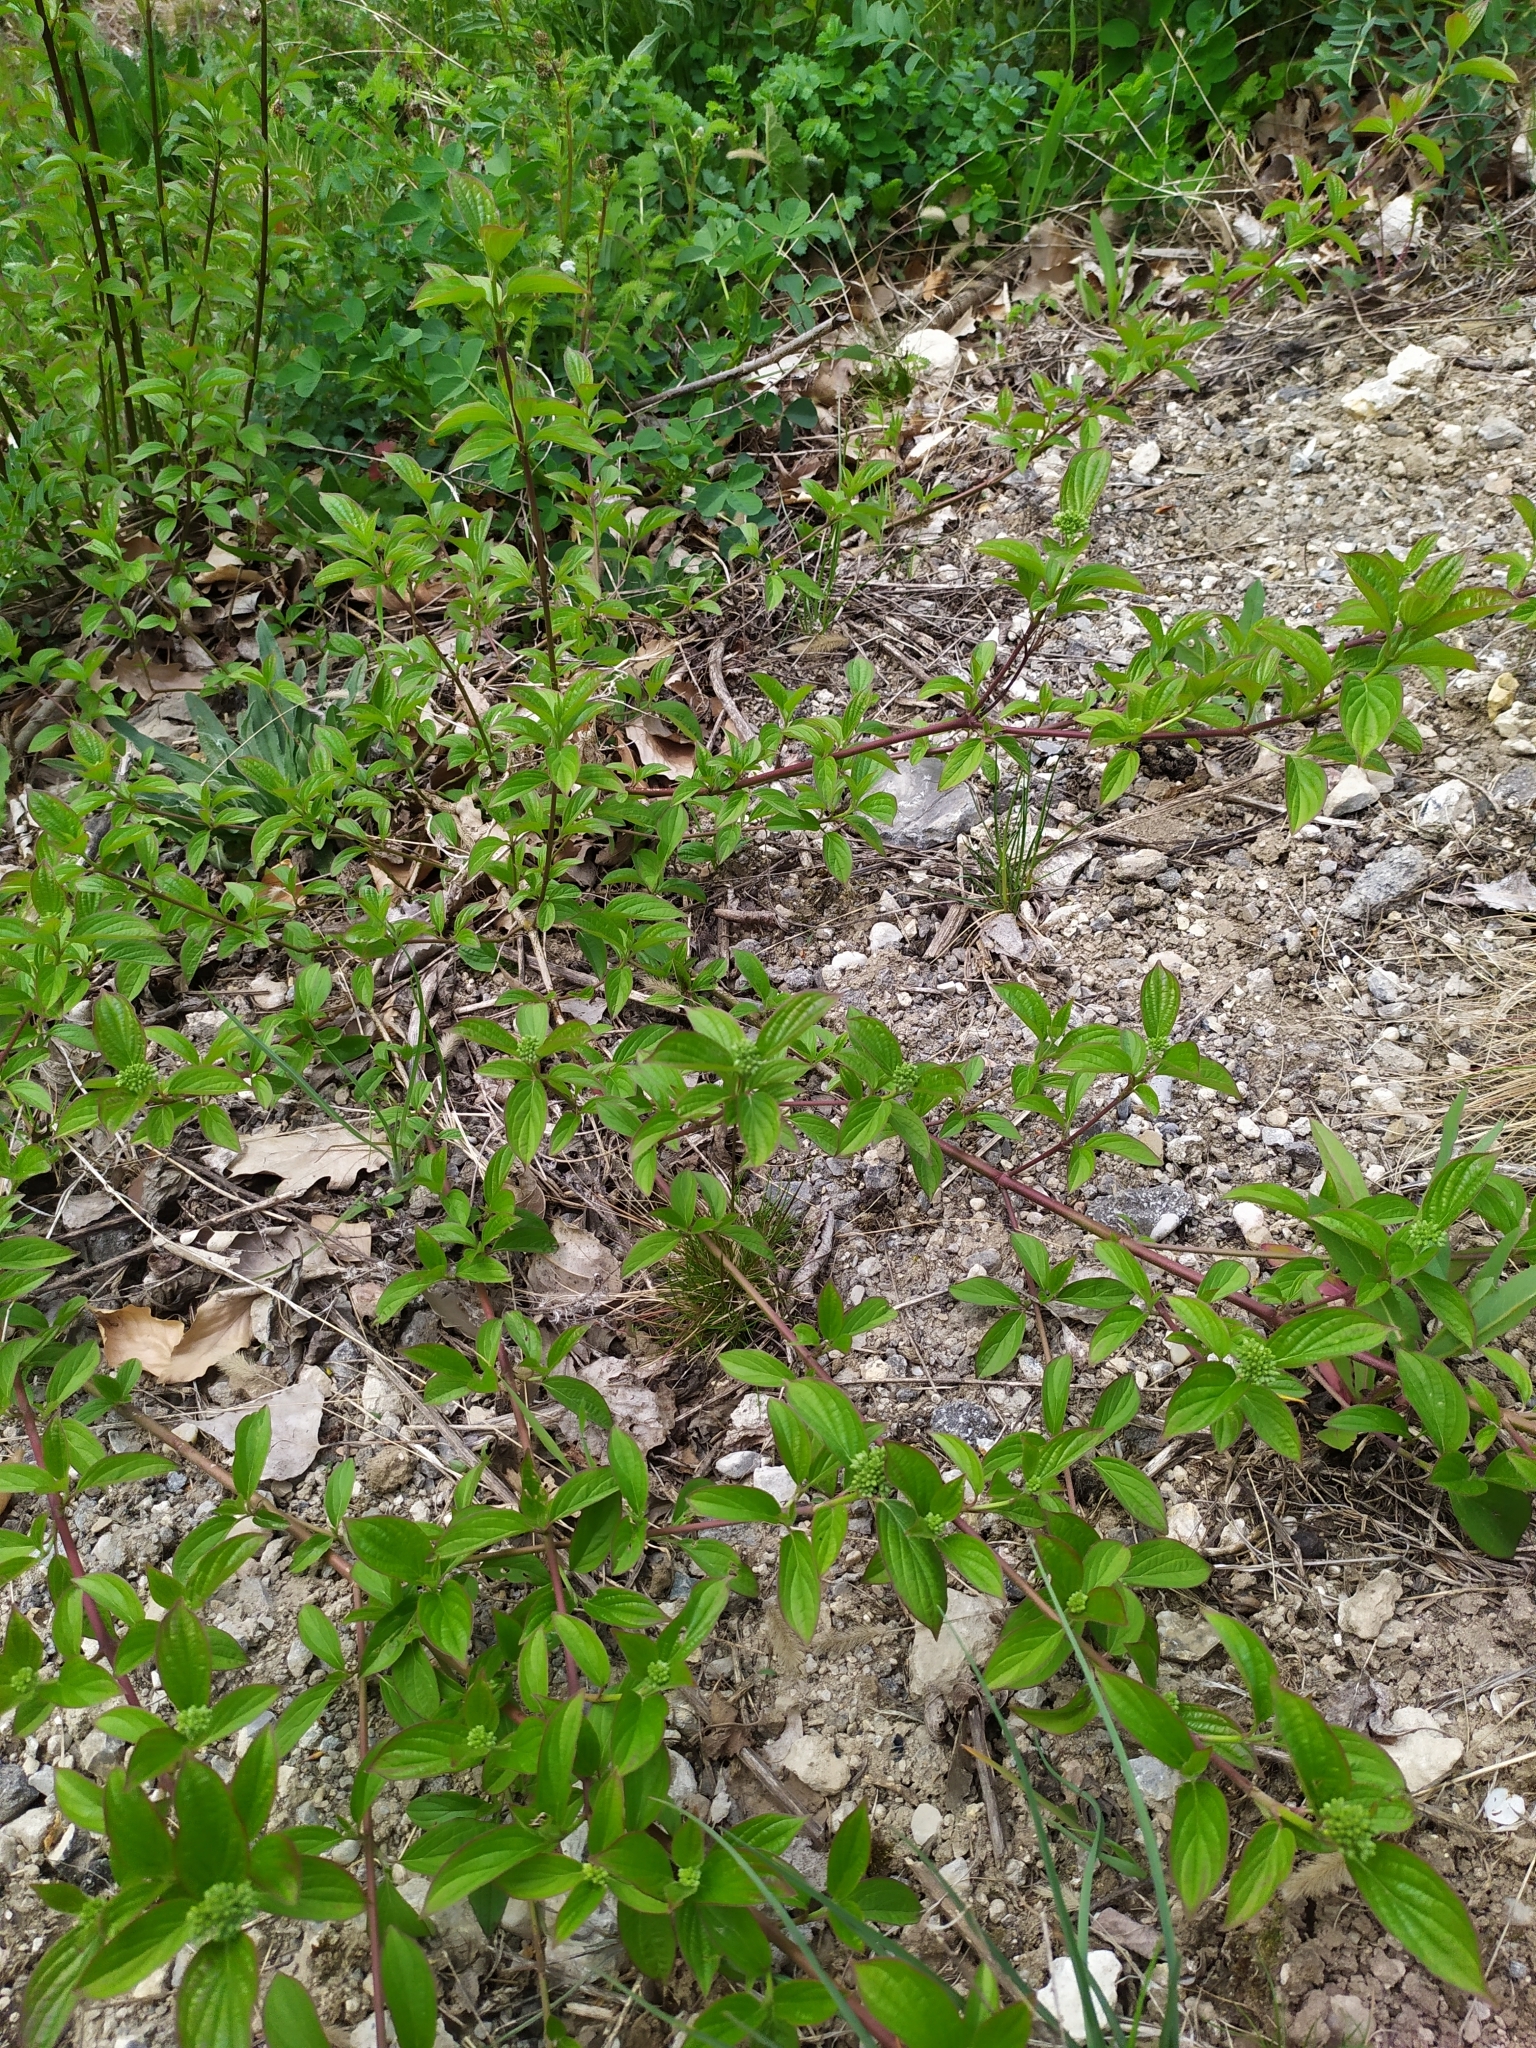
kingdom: Plantae
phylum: Tracheophyta
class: Magnoliopsida
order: Cornales
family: Cornaceae
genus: Cornus
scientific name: Cornus sanguinea
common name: Dogwood
